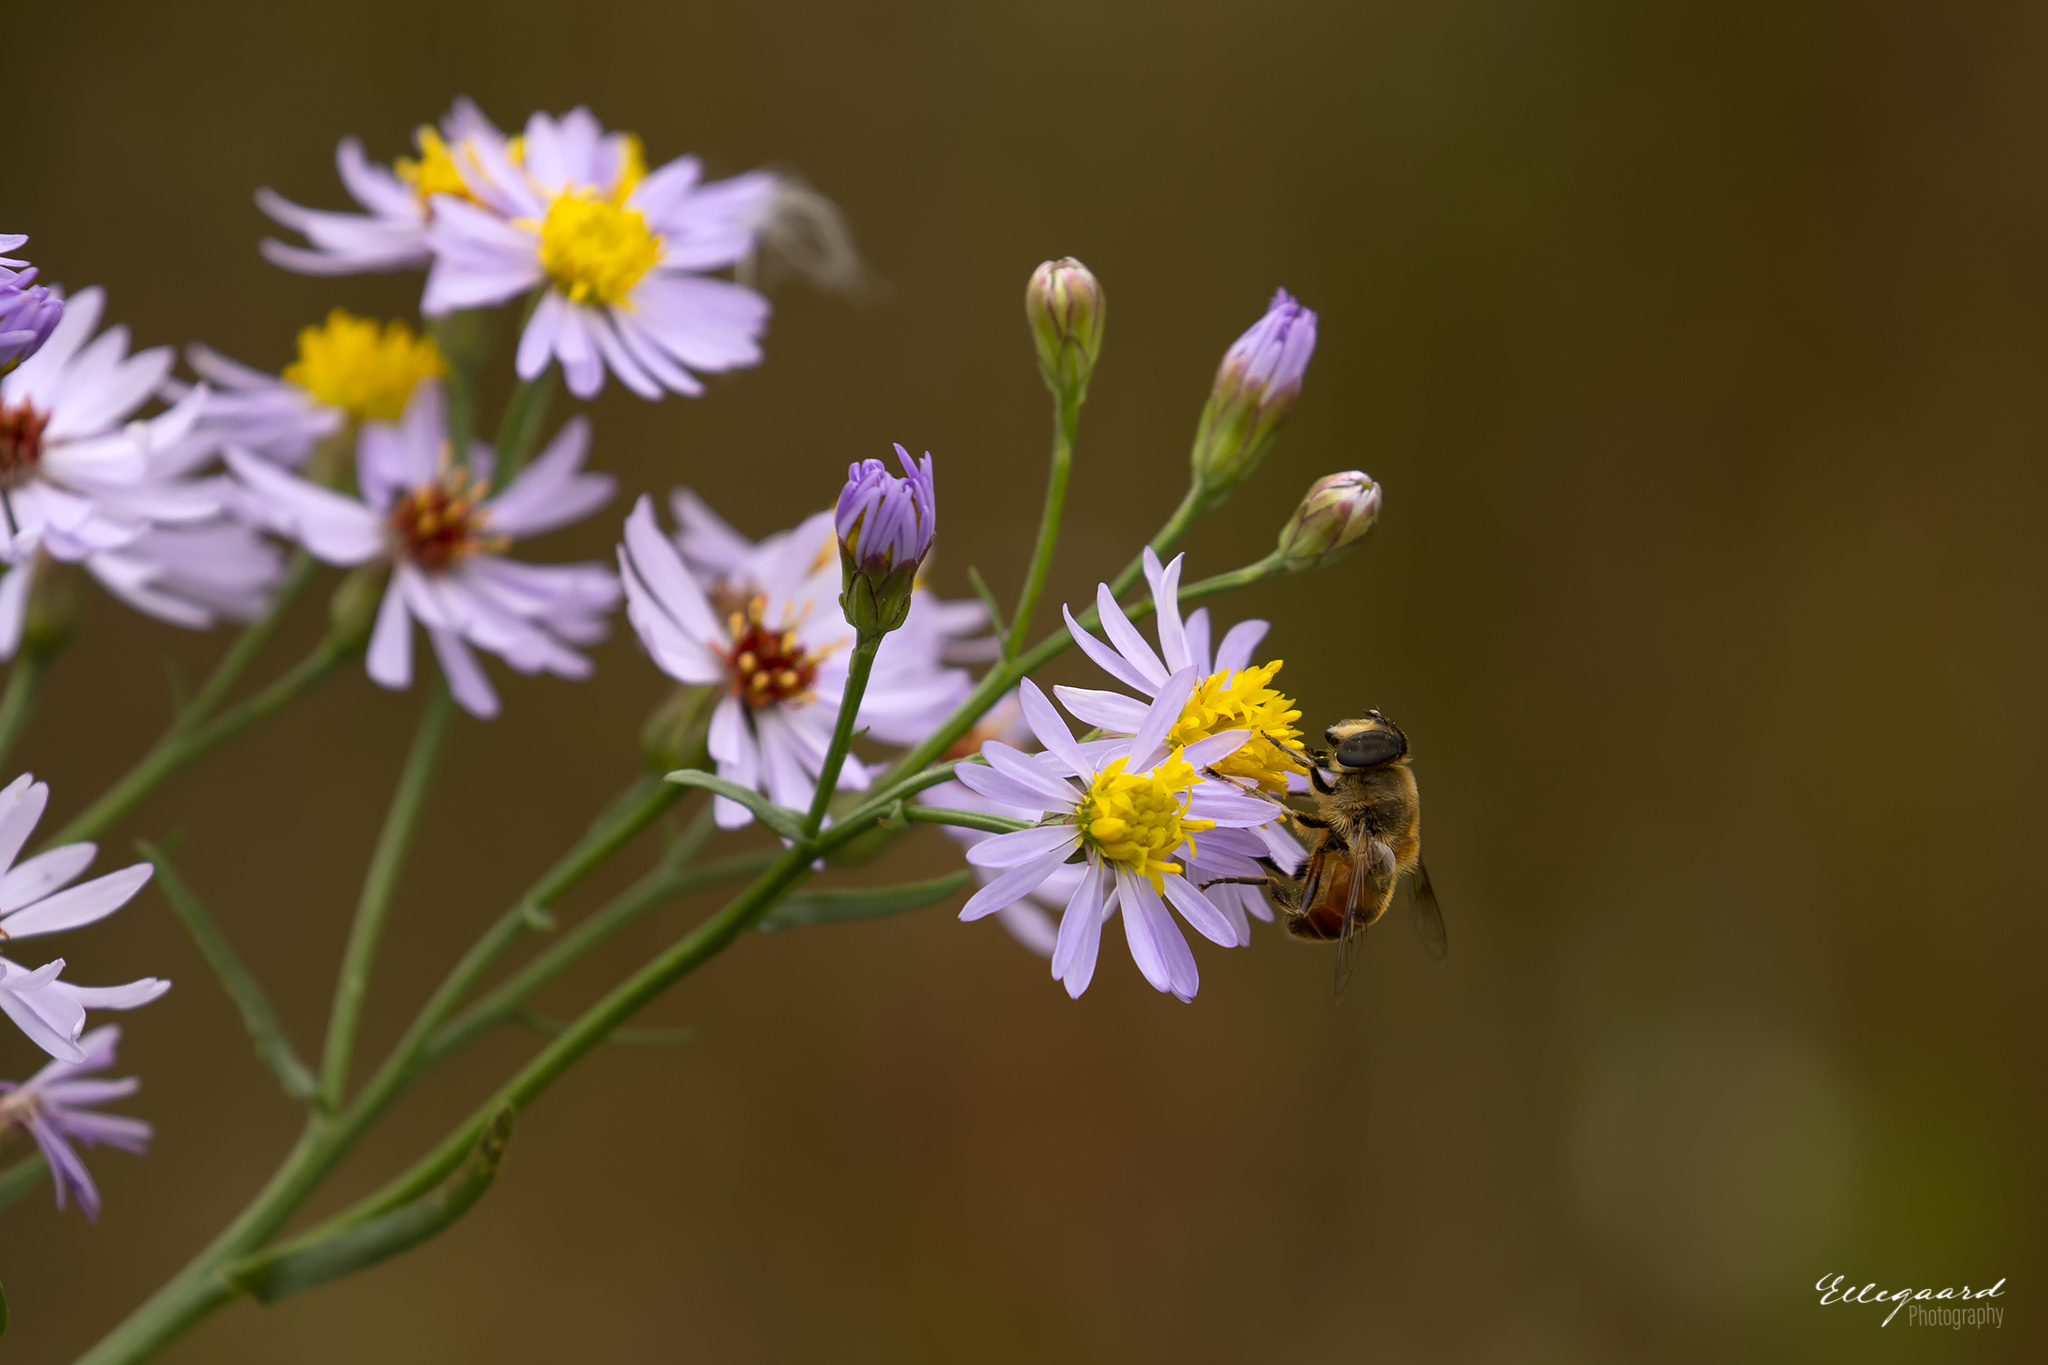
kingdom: Plantae
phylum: Tracheophyta
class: Magnoliopsida
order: Asterales
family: Asteraceae
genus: Tripolium
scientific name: Tripolium pannonicum
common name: Sea aster
